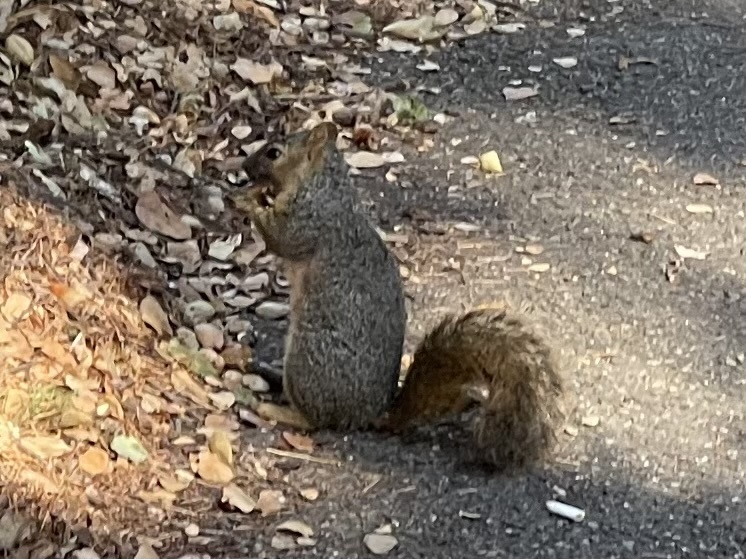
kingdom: Animalia
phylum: Chordata
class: Mammalia
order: Rodentia
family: Sciuridae
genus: Sciurus
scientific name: Sciurus niger
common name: Fox squirrel
